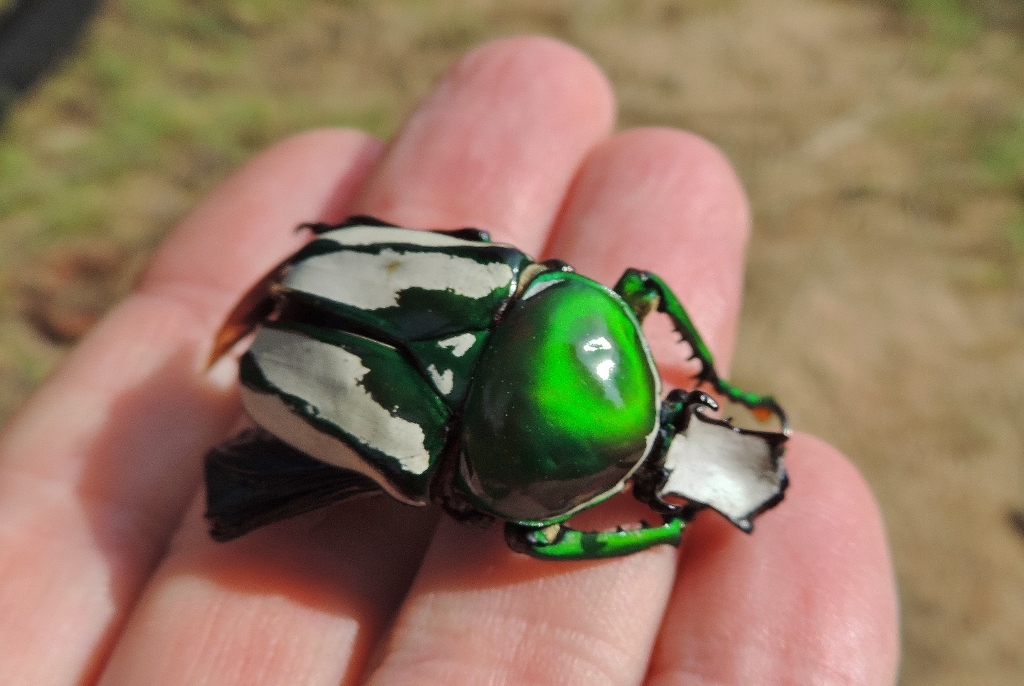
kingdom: Animalia
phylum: Arthropoda
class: Insecta
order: Coleoptera
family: Scarabaeidae
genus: Rhamphorrhina
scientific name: Rhamphorrhina splendens
